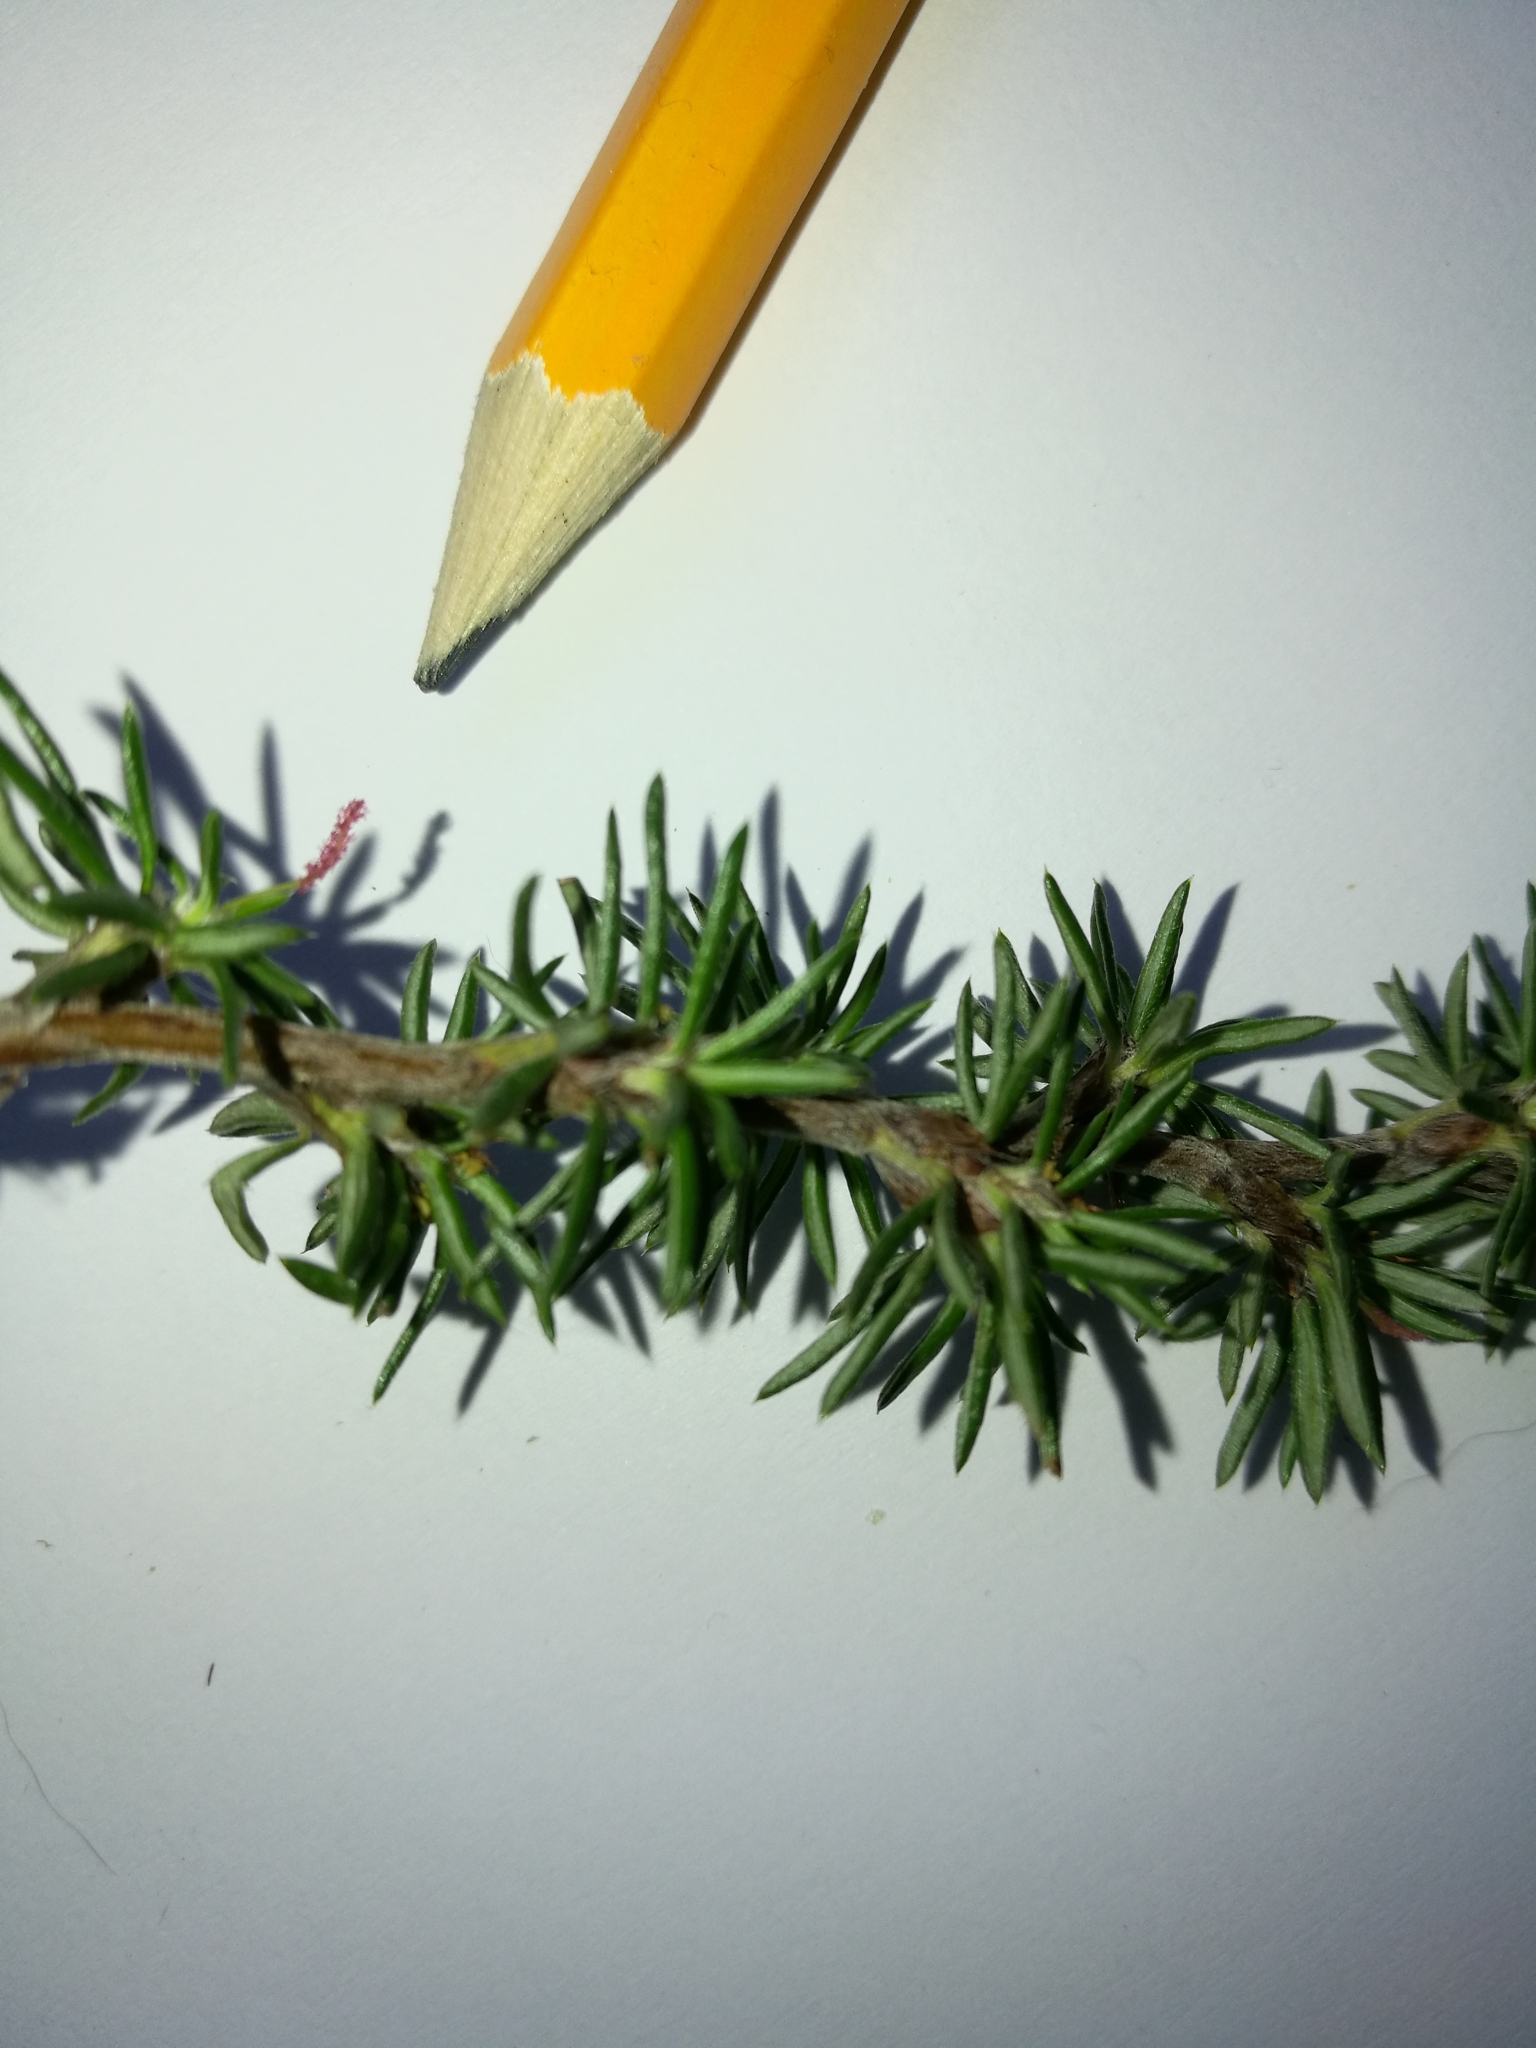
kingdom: Plantae
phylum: Tracheophyta
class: Magnoliopsida
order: Rosales
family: Rosaceae
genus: Cliffortia
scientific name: Cliffortia stricta
